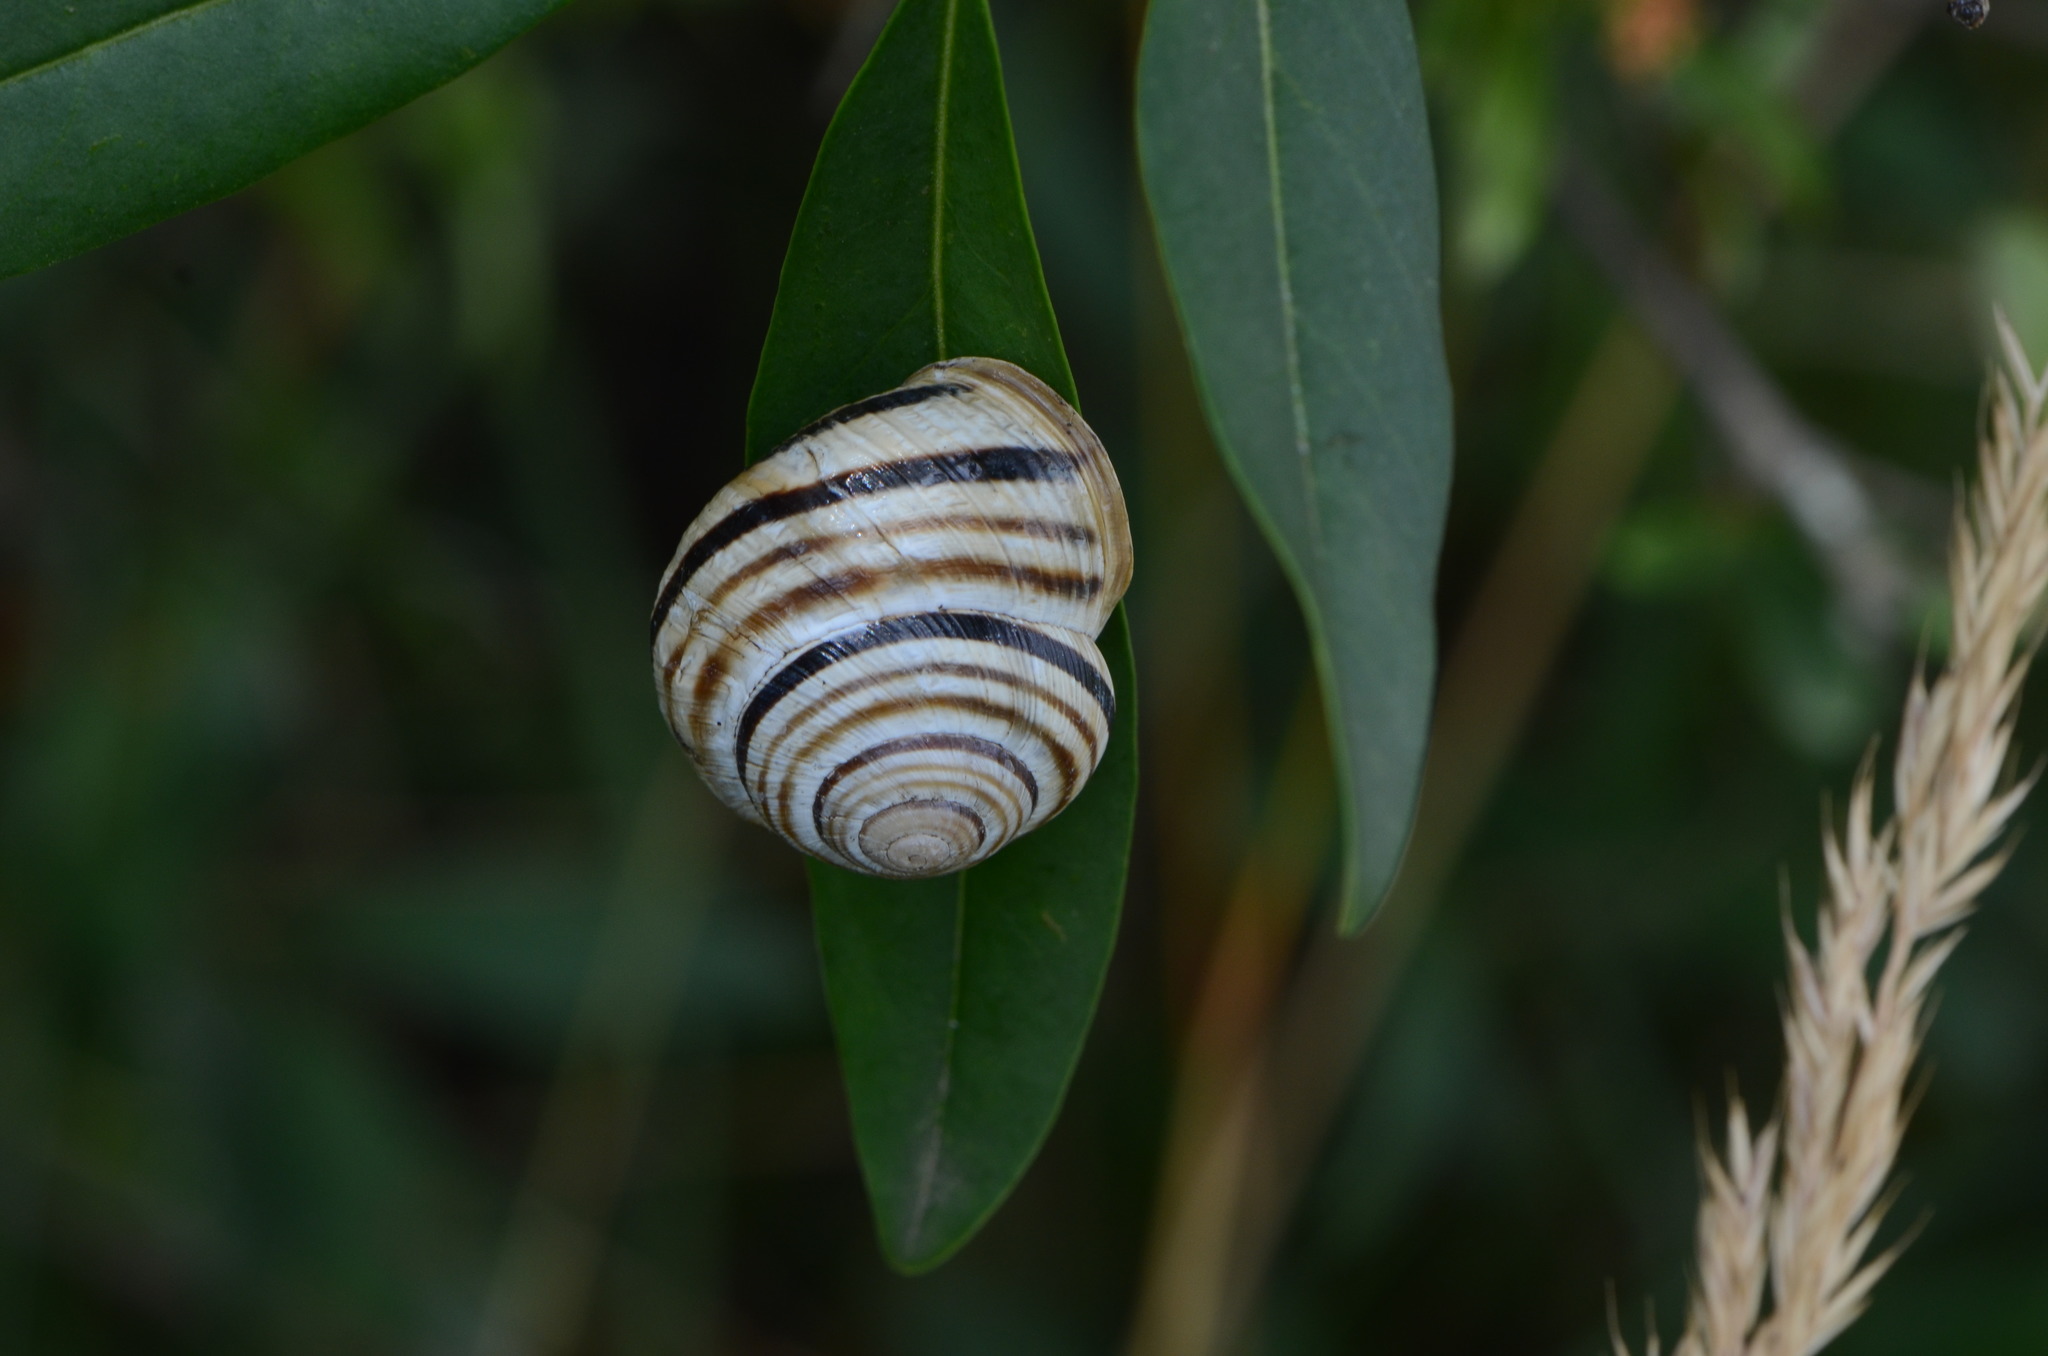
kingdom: Animalia
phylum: Mollusca
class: Gastropoda
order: Stylommatophora
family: Helicidae
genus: Caucasotachea
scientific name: Caucasotachea vindobonensis
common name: European helicid land snail
